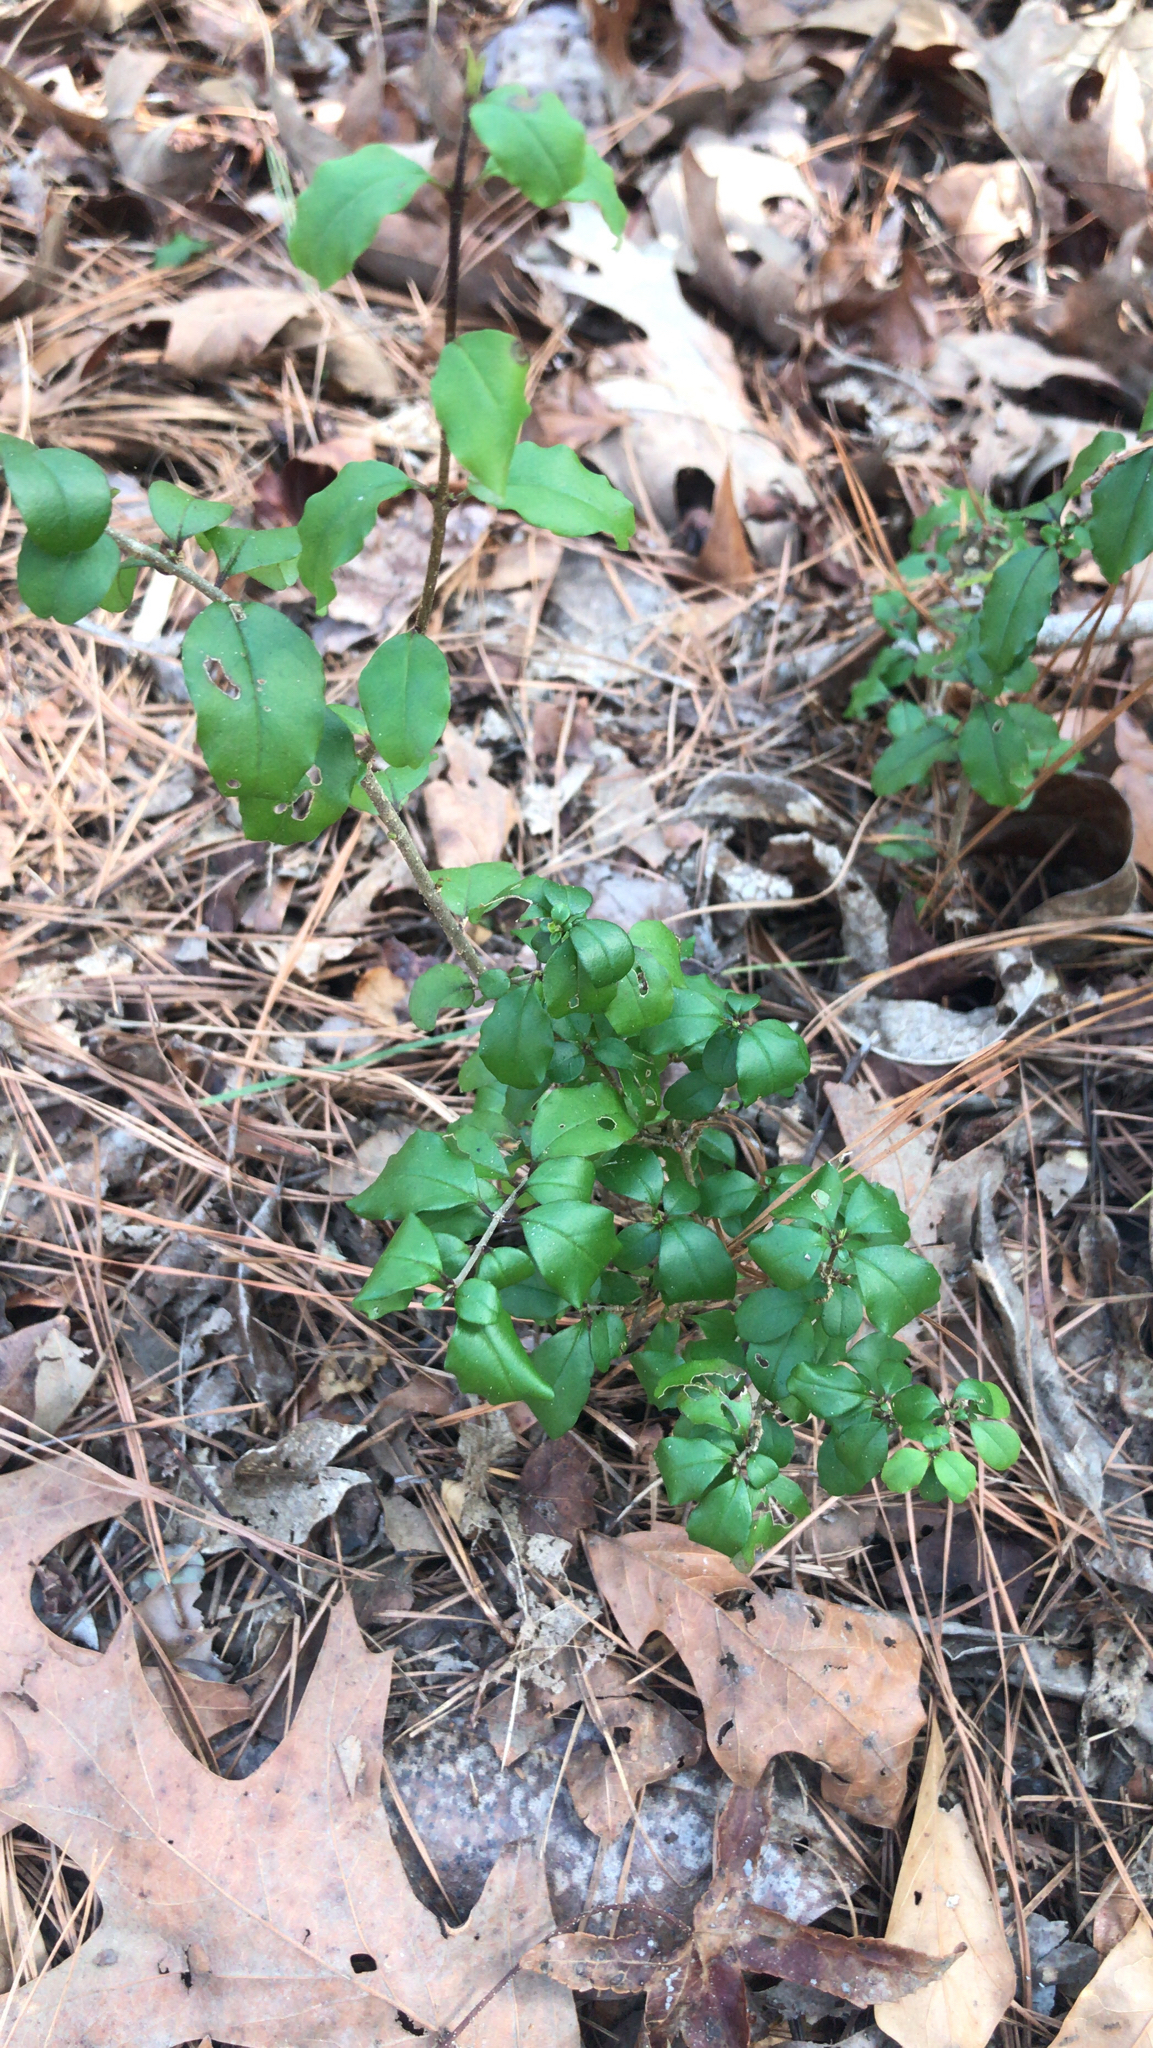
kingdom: Plantae
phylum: Tracheophyta
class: Magnoliopsida
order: Lamiales
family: Oleaceae
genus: Ligustrum
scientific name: Ligustrum sinense
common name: Chinese privet
